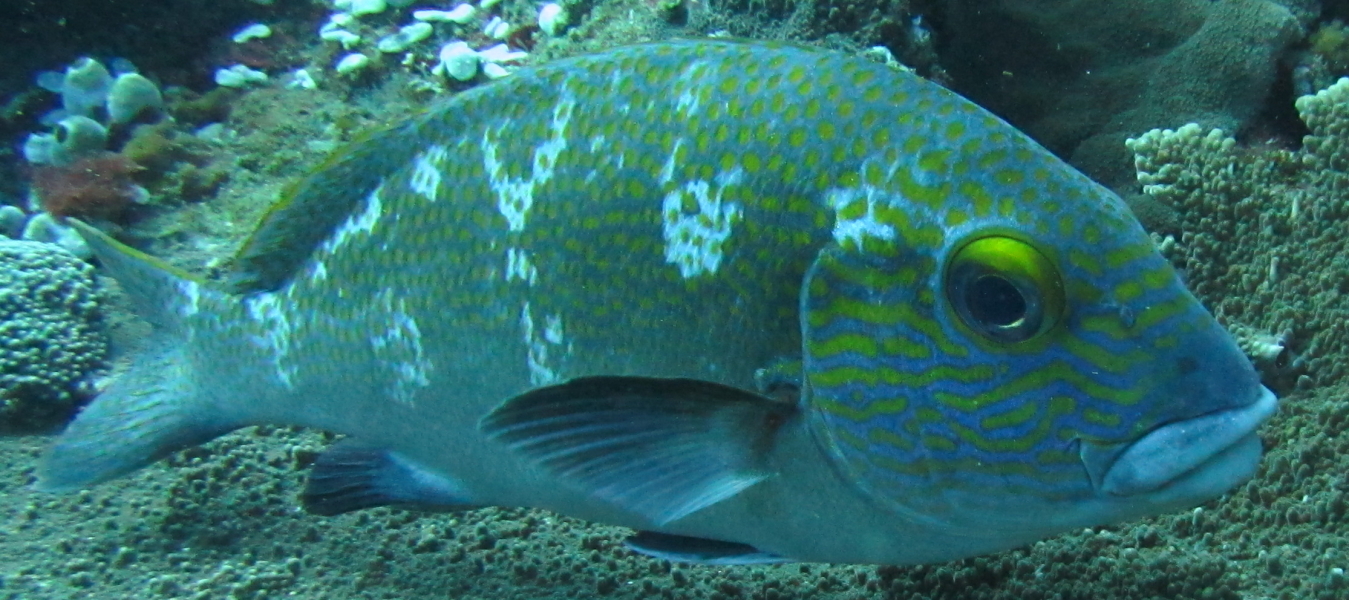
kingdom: Animalia
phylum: Chordata
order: Perciformes
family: Haemulidae
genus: Plectorhinchus
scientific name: Plectorhinchus flavomaculatus
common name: Netted sweetlips
